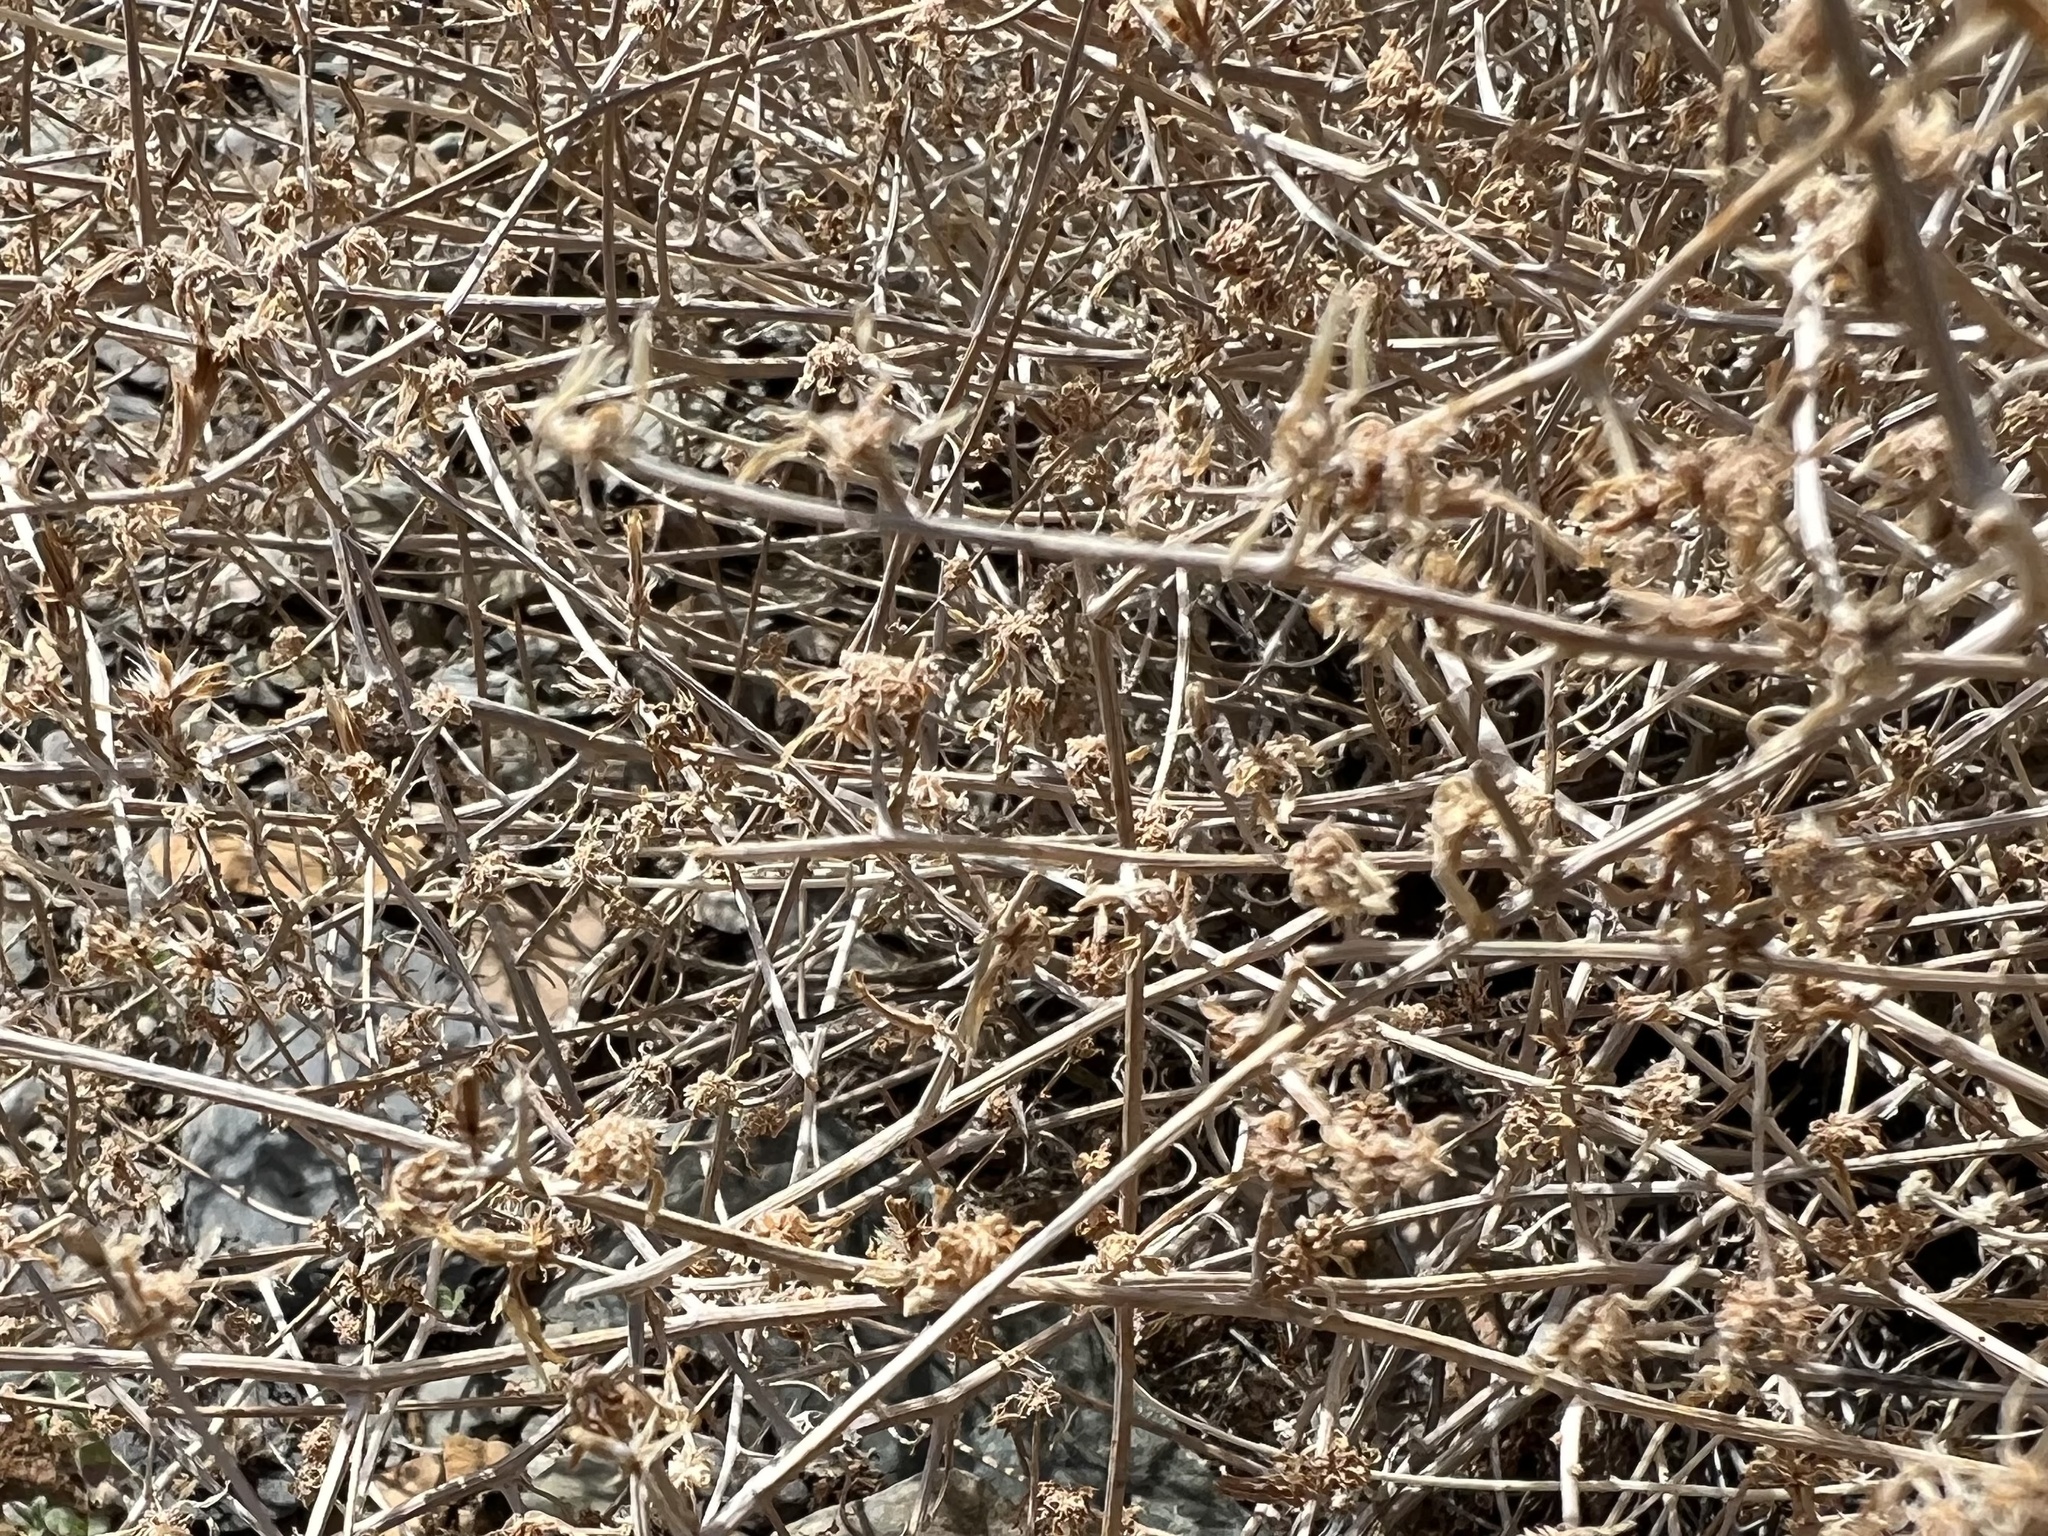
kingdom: Plantae
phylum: Tracheophyta
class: Magnoliopsida
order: Asterales
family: Asteraceae
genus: Stephanomeria
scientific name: Stephanomeria pauciflora
